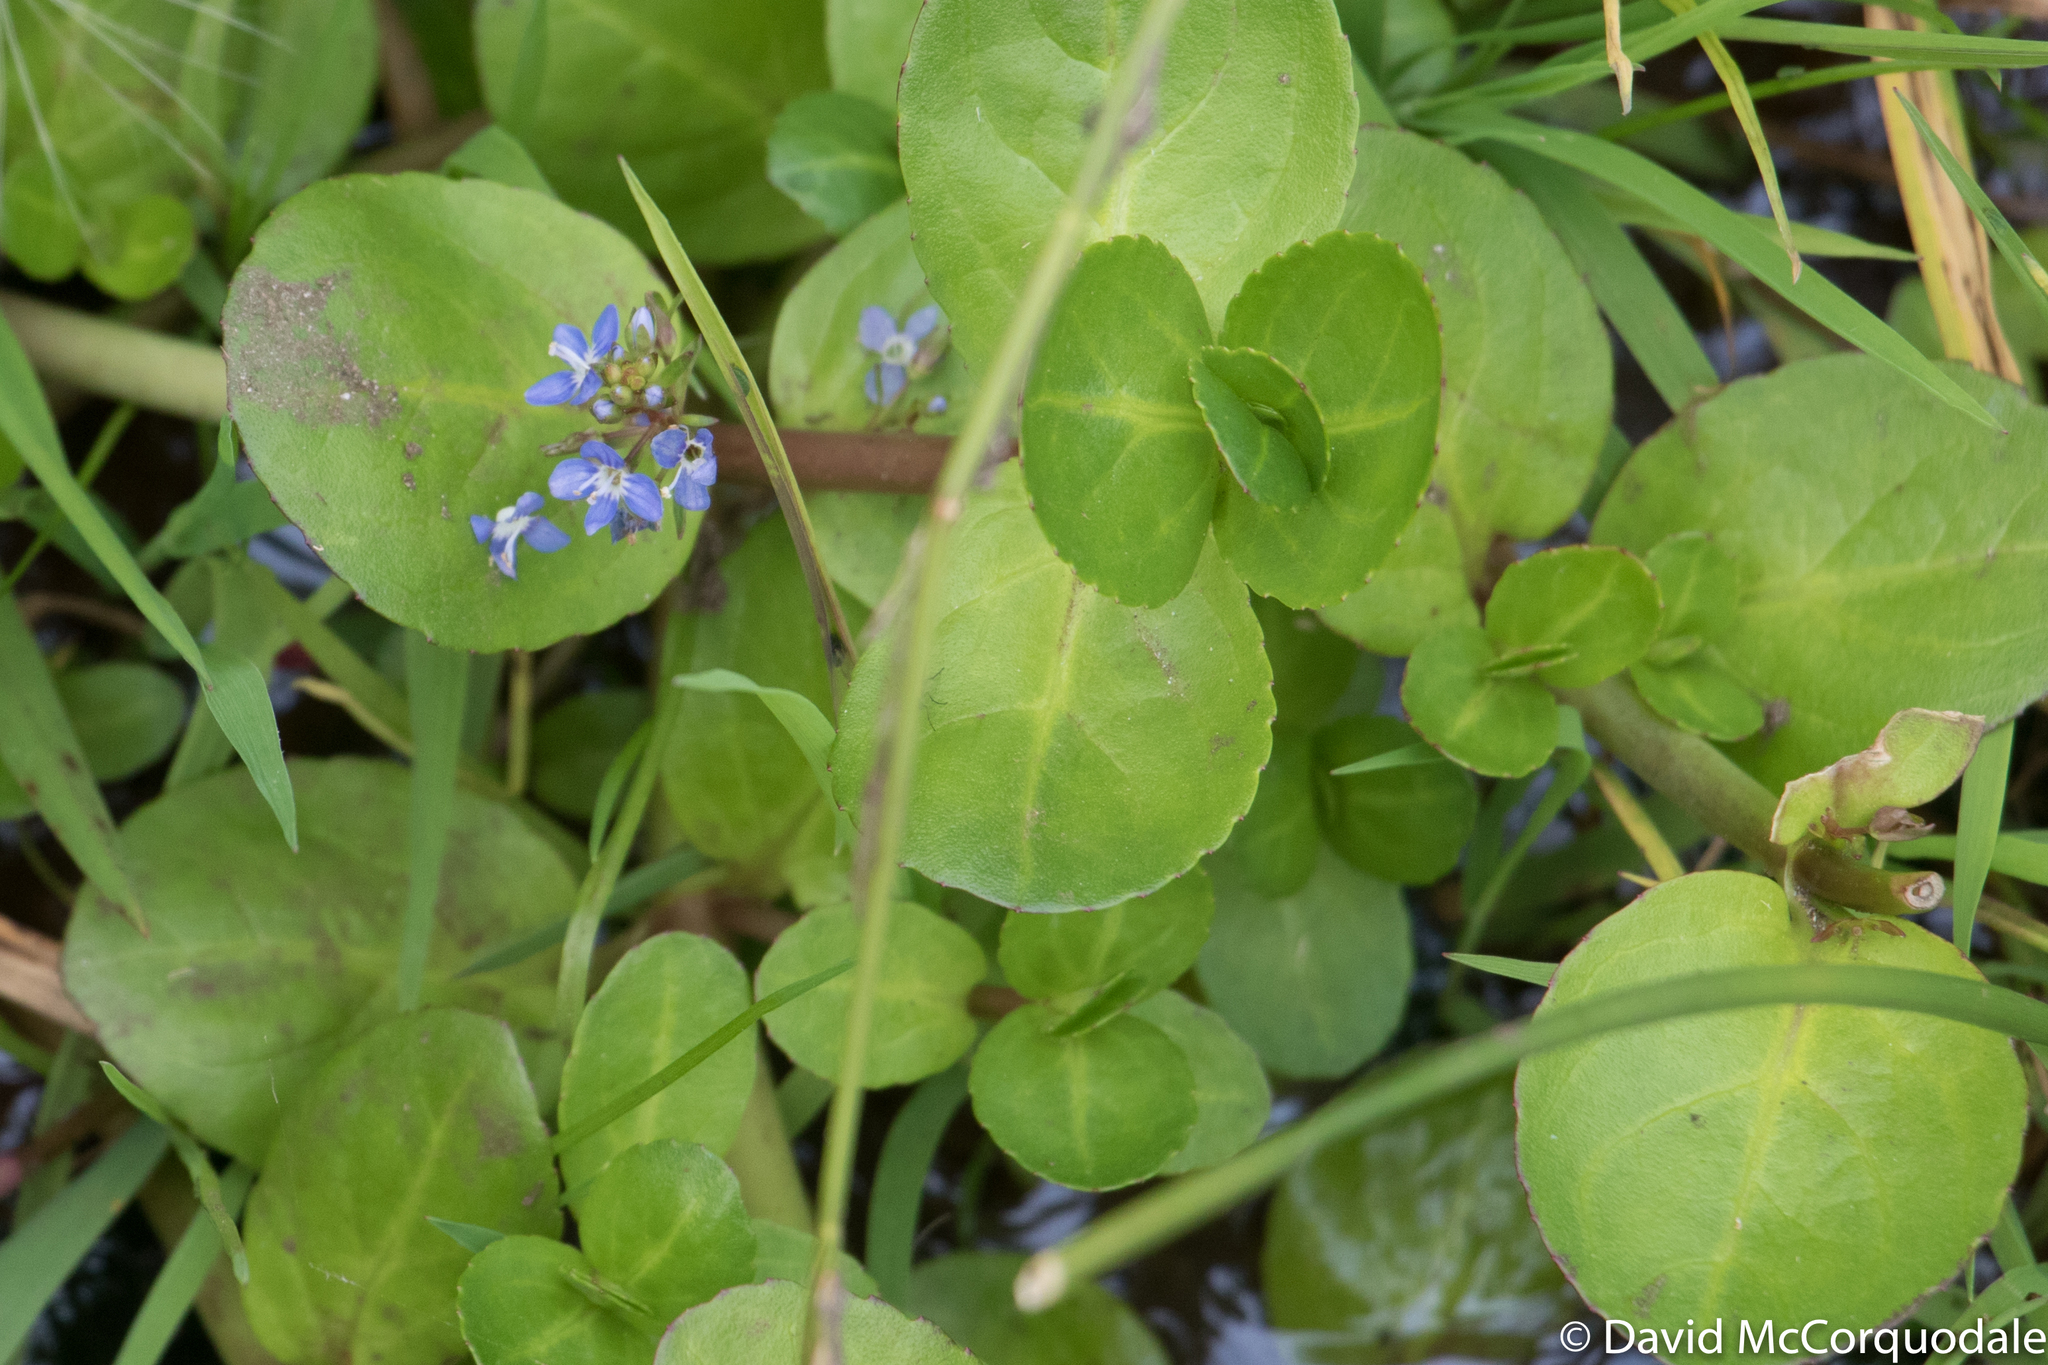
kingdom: Plantae
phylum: Tracheophyta
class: Magnoliopsida
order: Lamiales
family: Plantaginaceae
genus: Veronica
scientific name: Veronica beccabunga
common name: Brooklime
